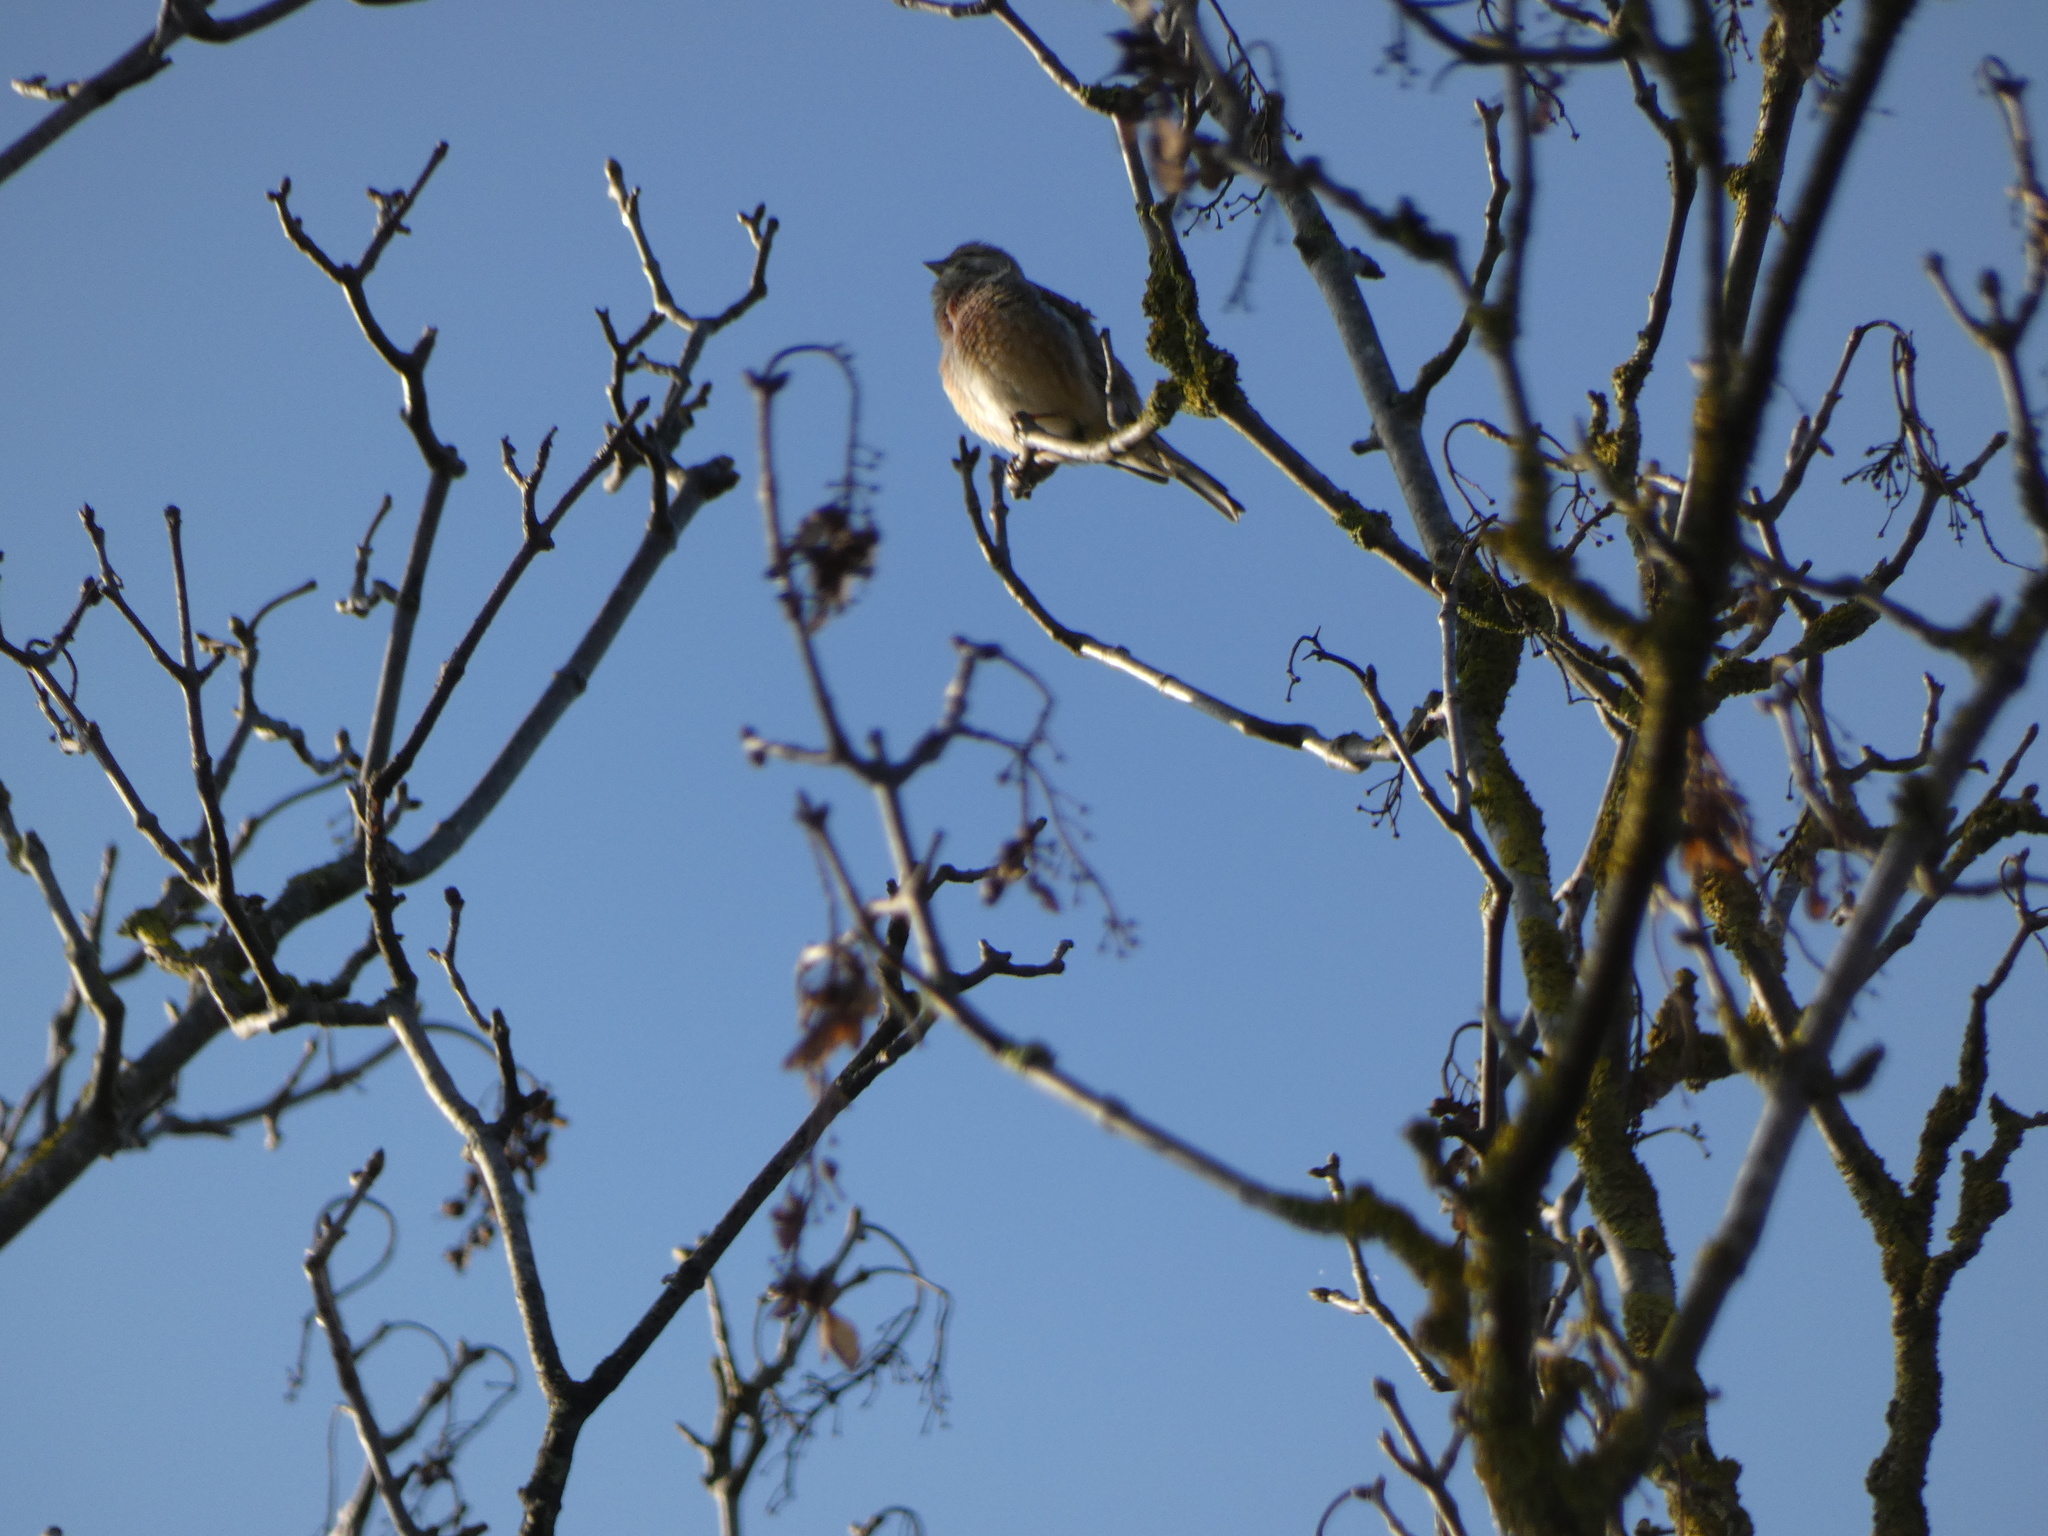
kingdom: Animalia
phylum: Chordata
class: Aves
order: Passeriformes
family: Fringillidae
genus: Linaria
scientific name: Linaria cannabina
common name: Common linnet
